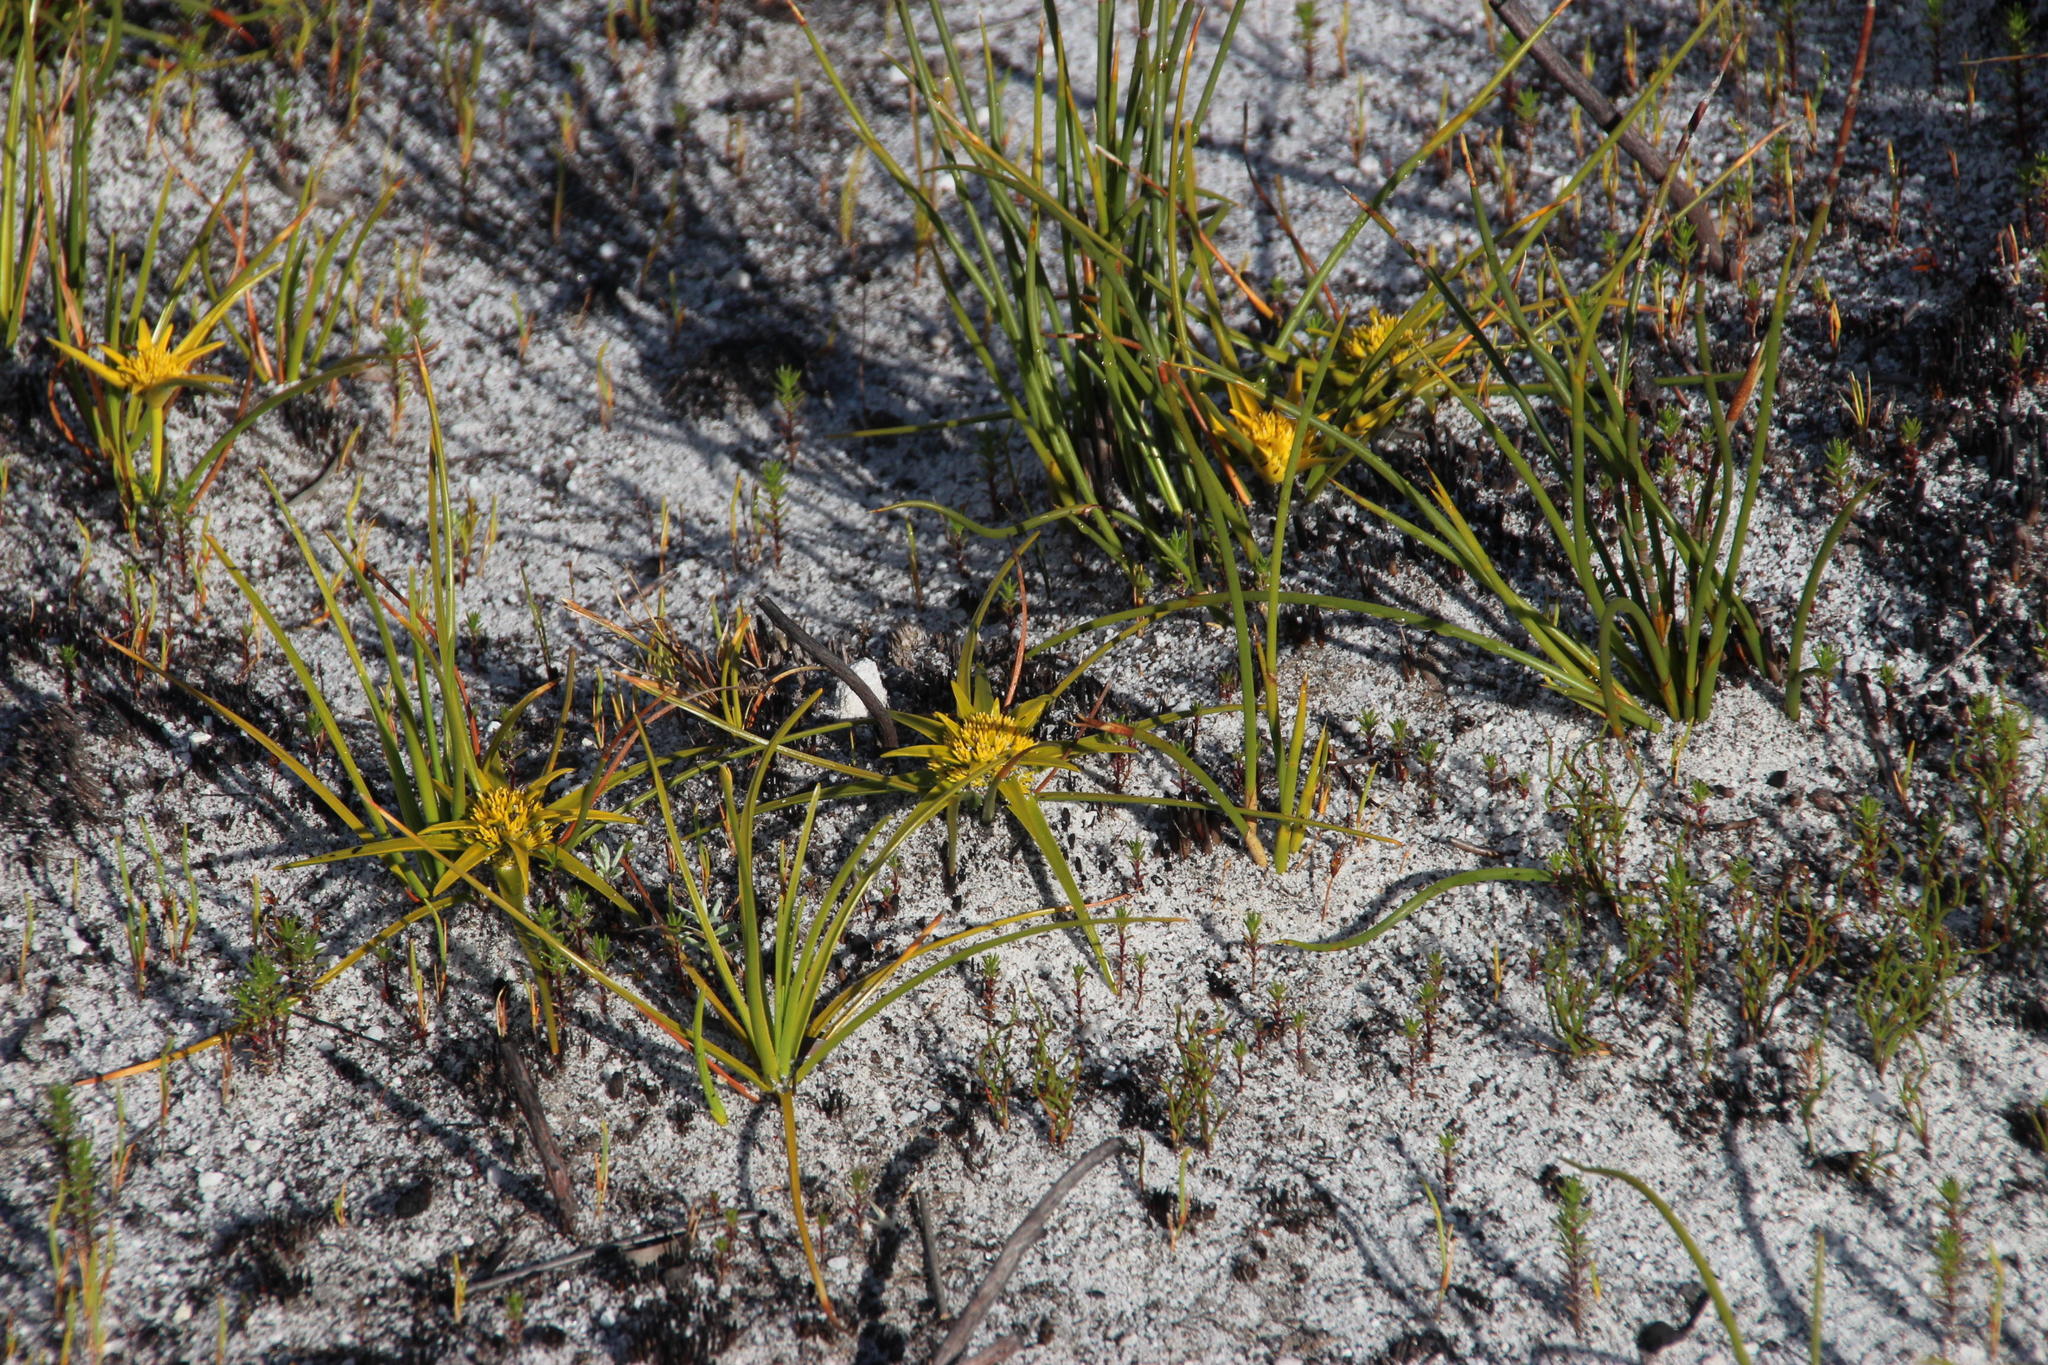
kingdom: Plantae
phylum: Tracheophyta
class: Liliopsida
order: Poales
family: Cyperaceae
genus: Ficinia
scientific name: Ficinia radiata
